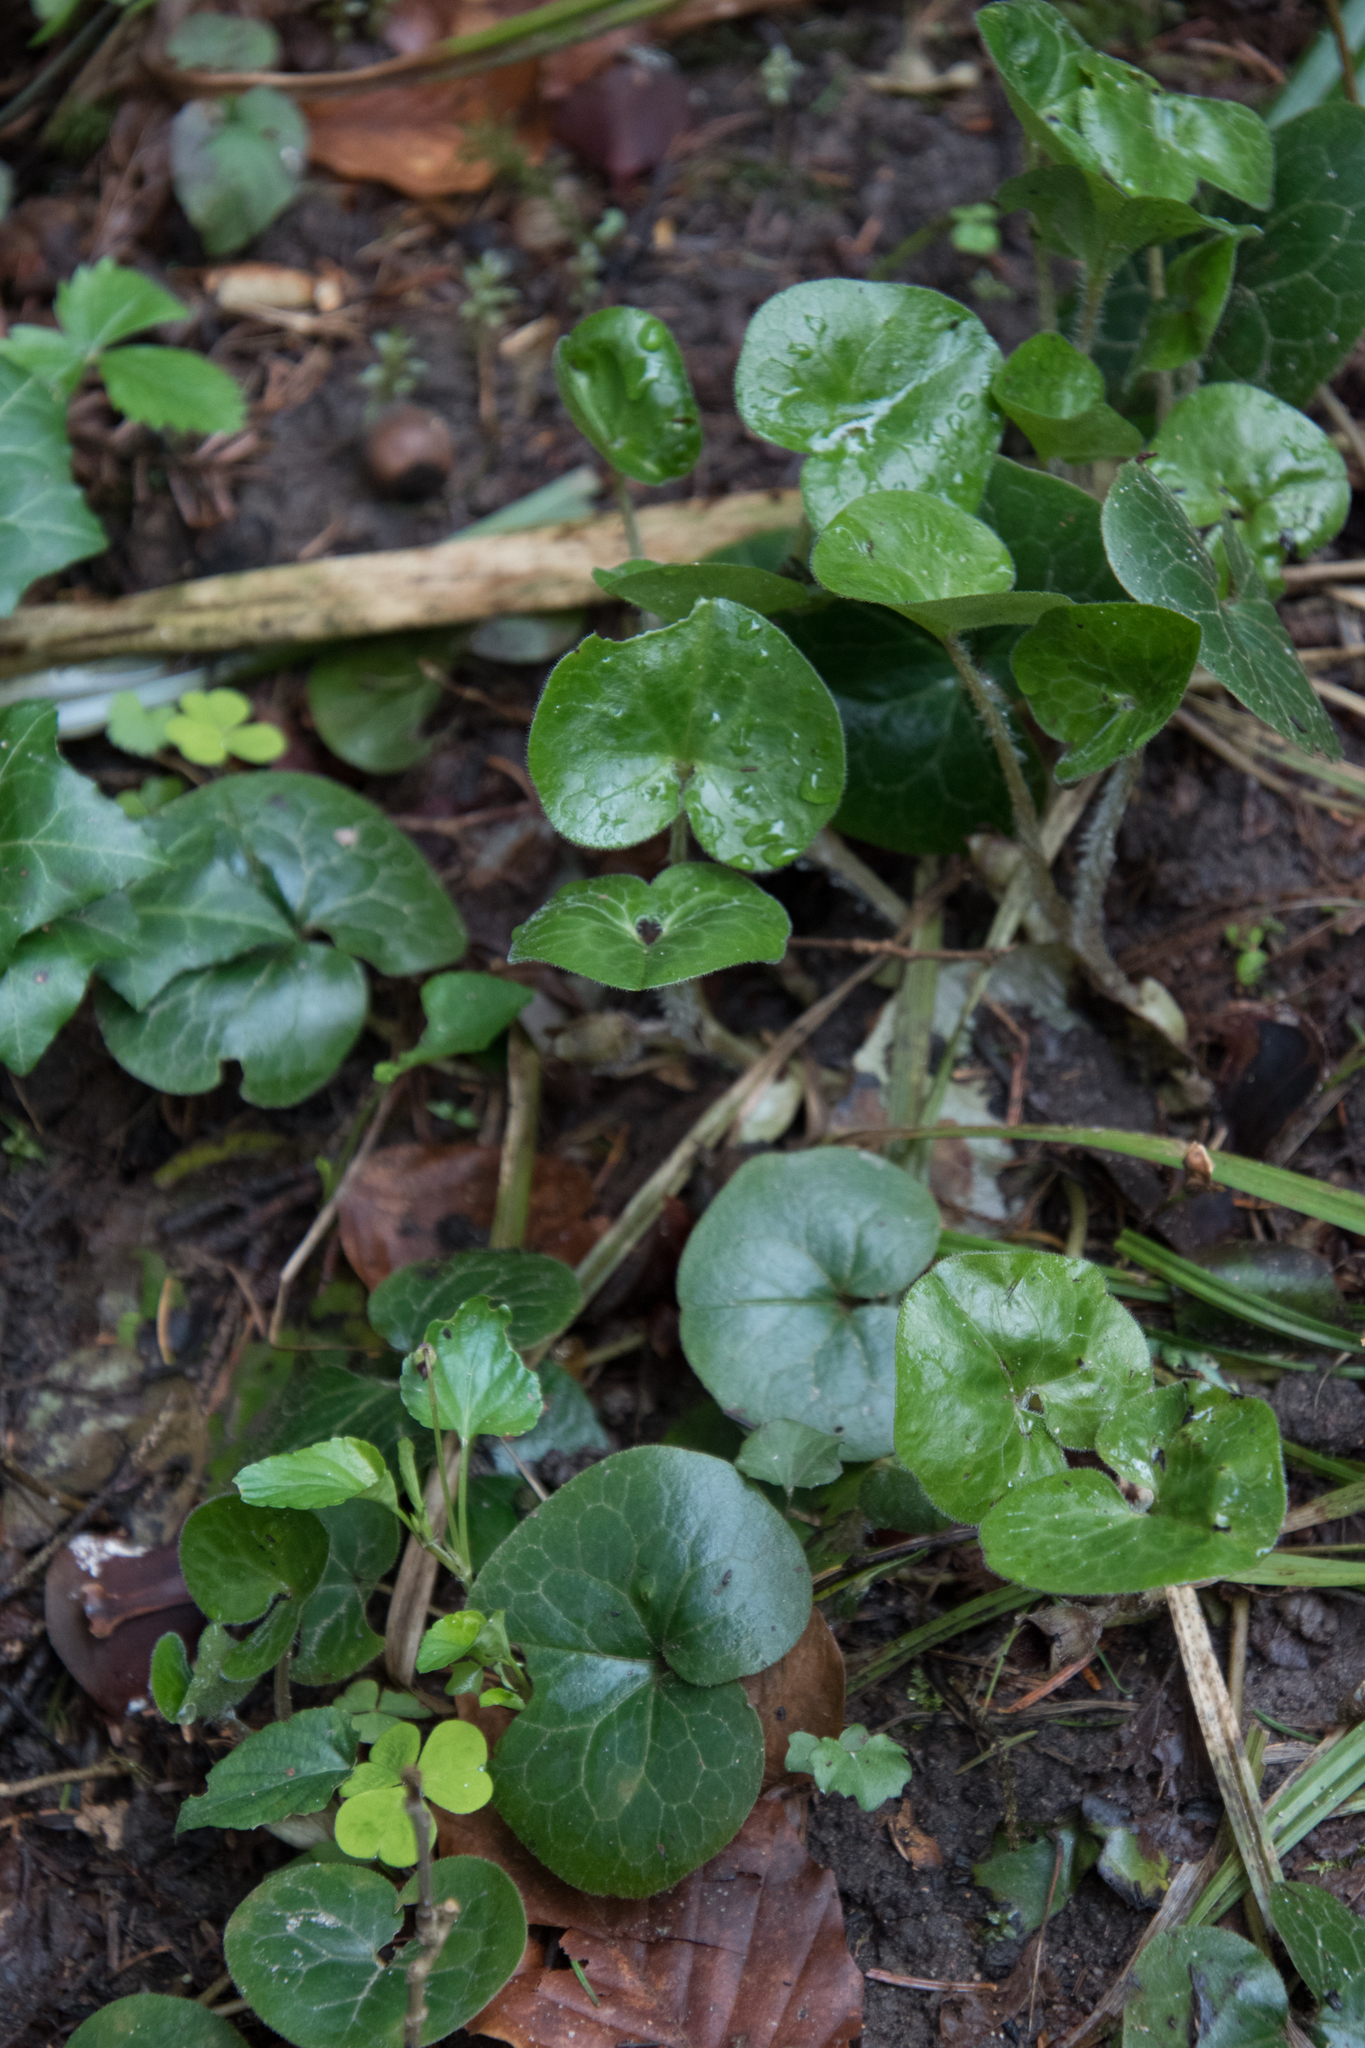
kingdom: Plantae
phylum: Tracheophyta
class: Magnoliopsida
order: Piperales
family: Aristolochiaceae
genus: Asarum
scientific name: Asarum europaeum
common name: Asarabacca
